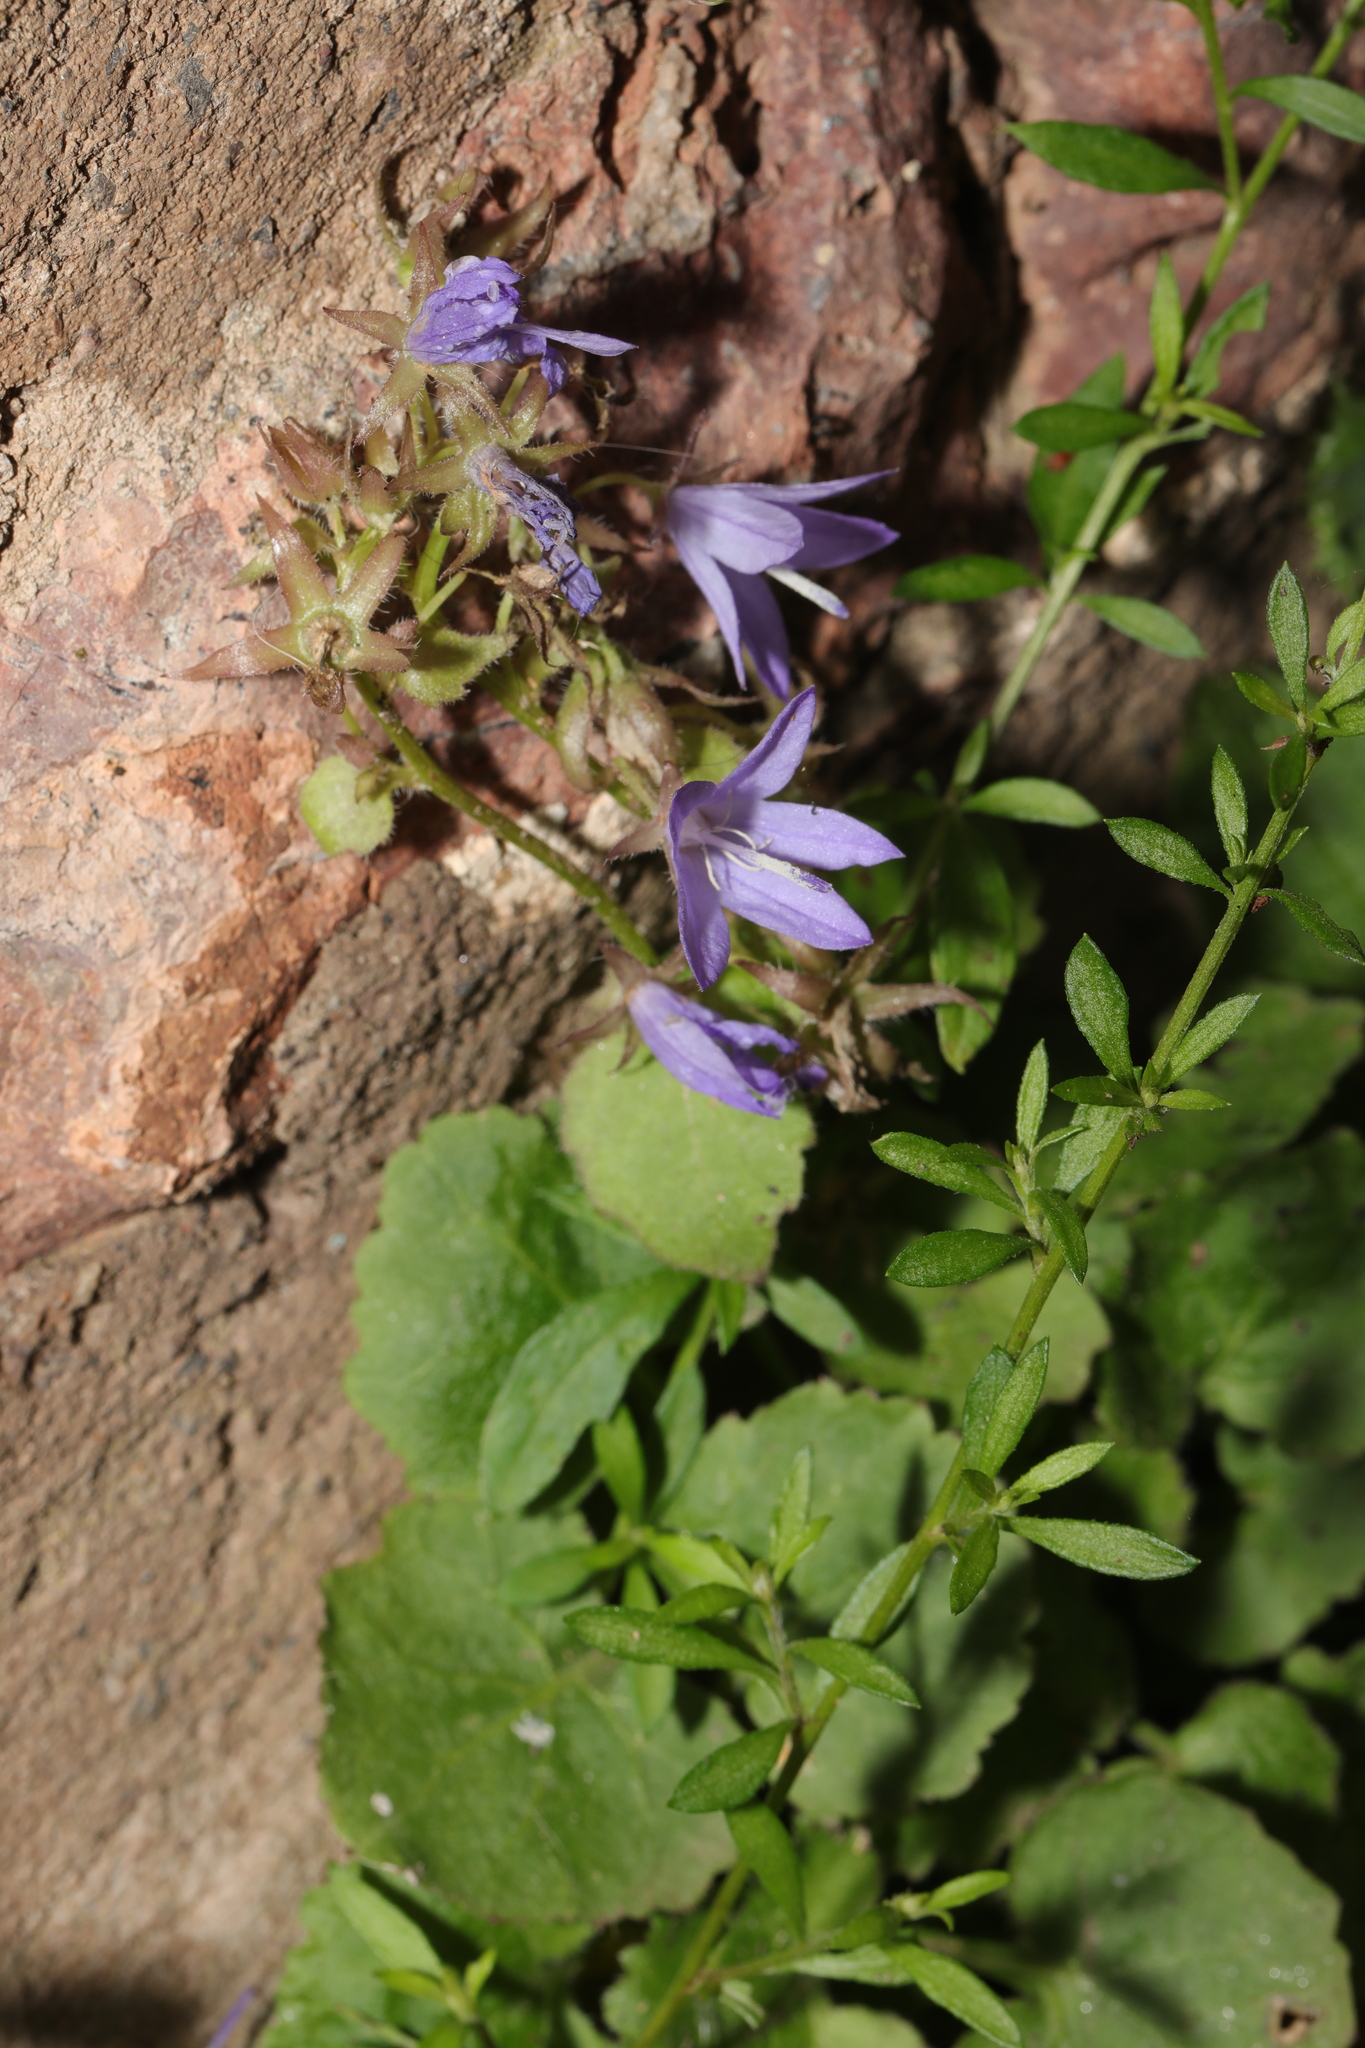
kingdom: Plantae
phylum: Tracheophyta
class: Magnoliopsida
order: Asterales
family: Campanulaceae
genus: Campanula
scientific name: Campanula poscharskyana
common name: Trailing bellflower
